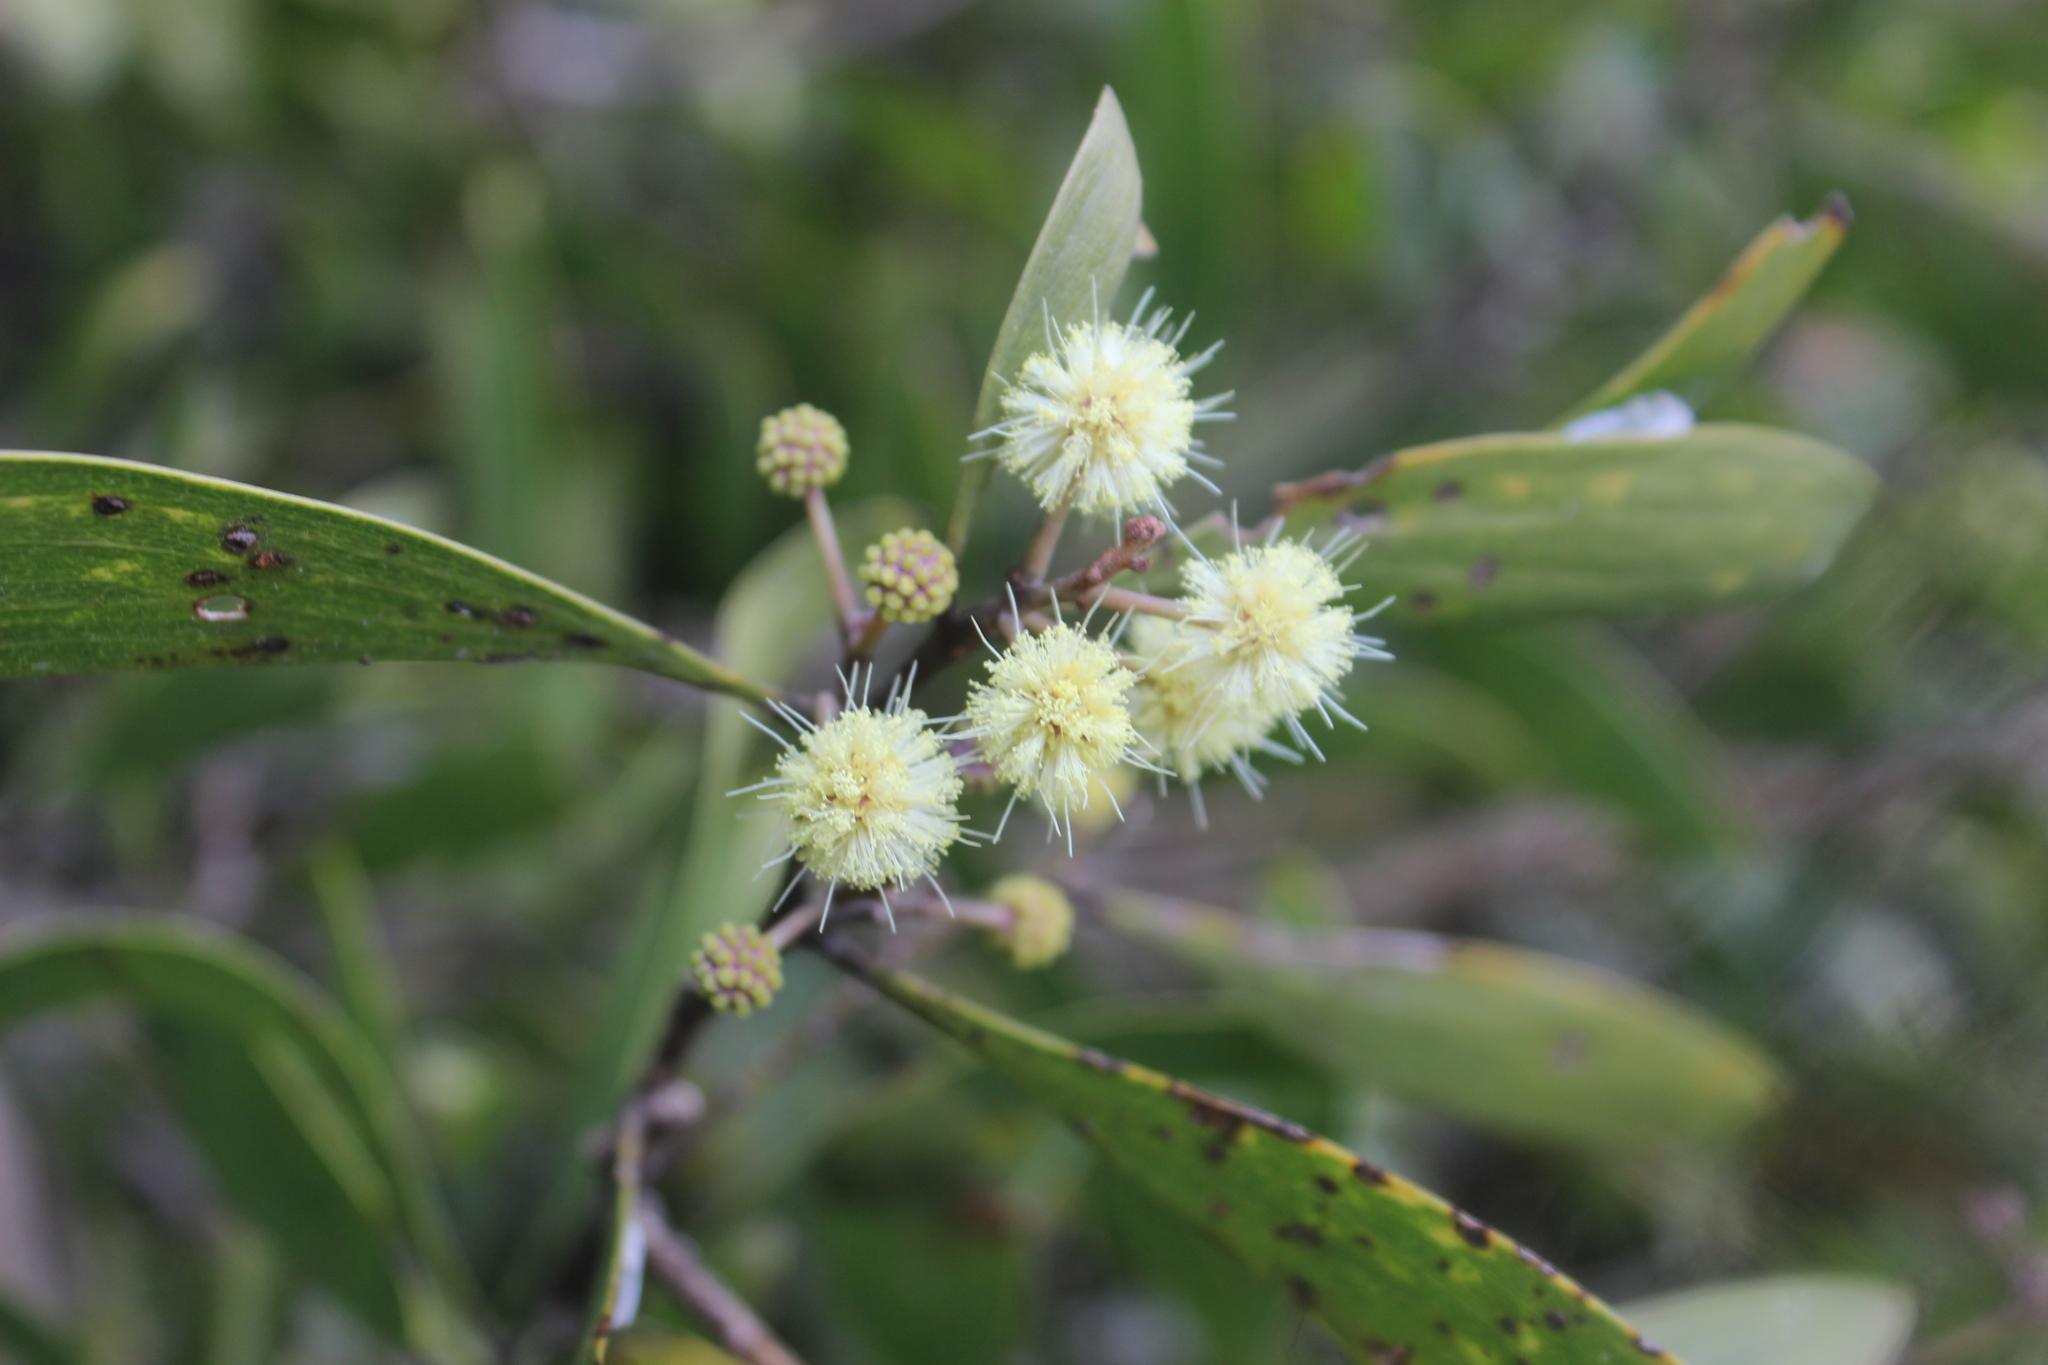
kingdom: Plantae
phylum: Tracheophyta
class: Magnoliopsida
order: Fabales
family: Fabaceae
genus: Acacia
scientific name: Acacia melanoxylon
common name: Blackwood
